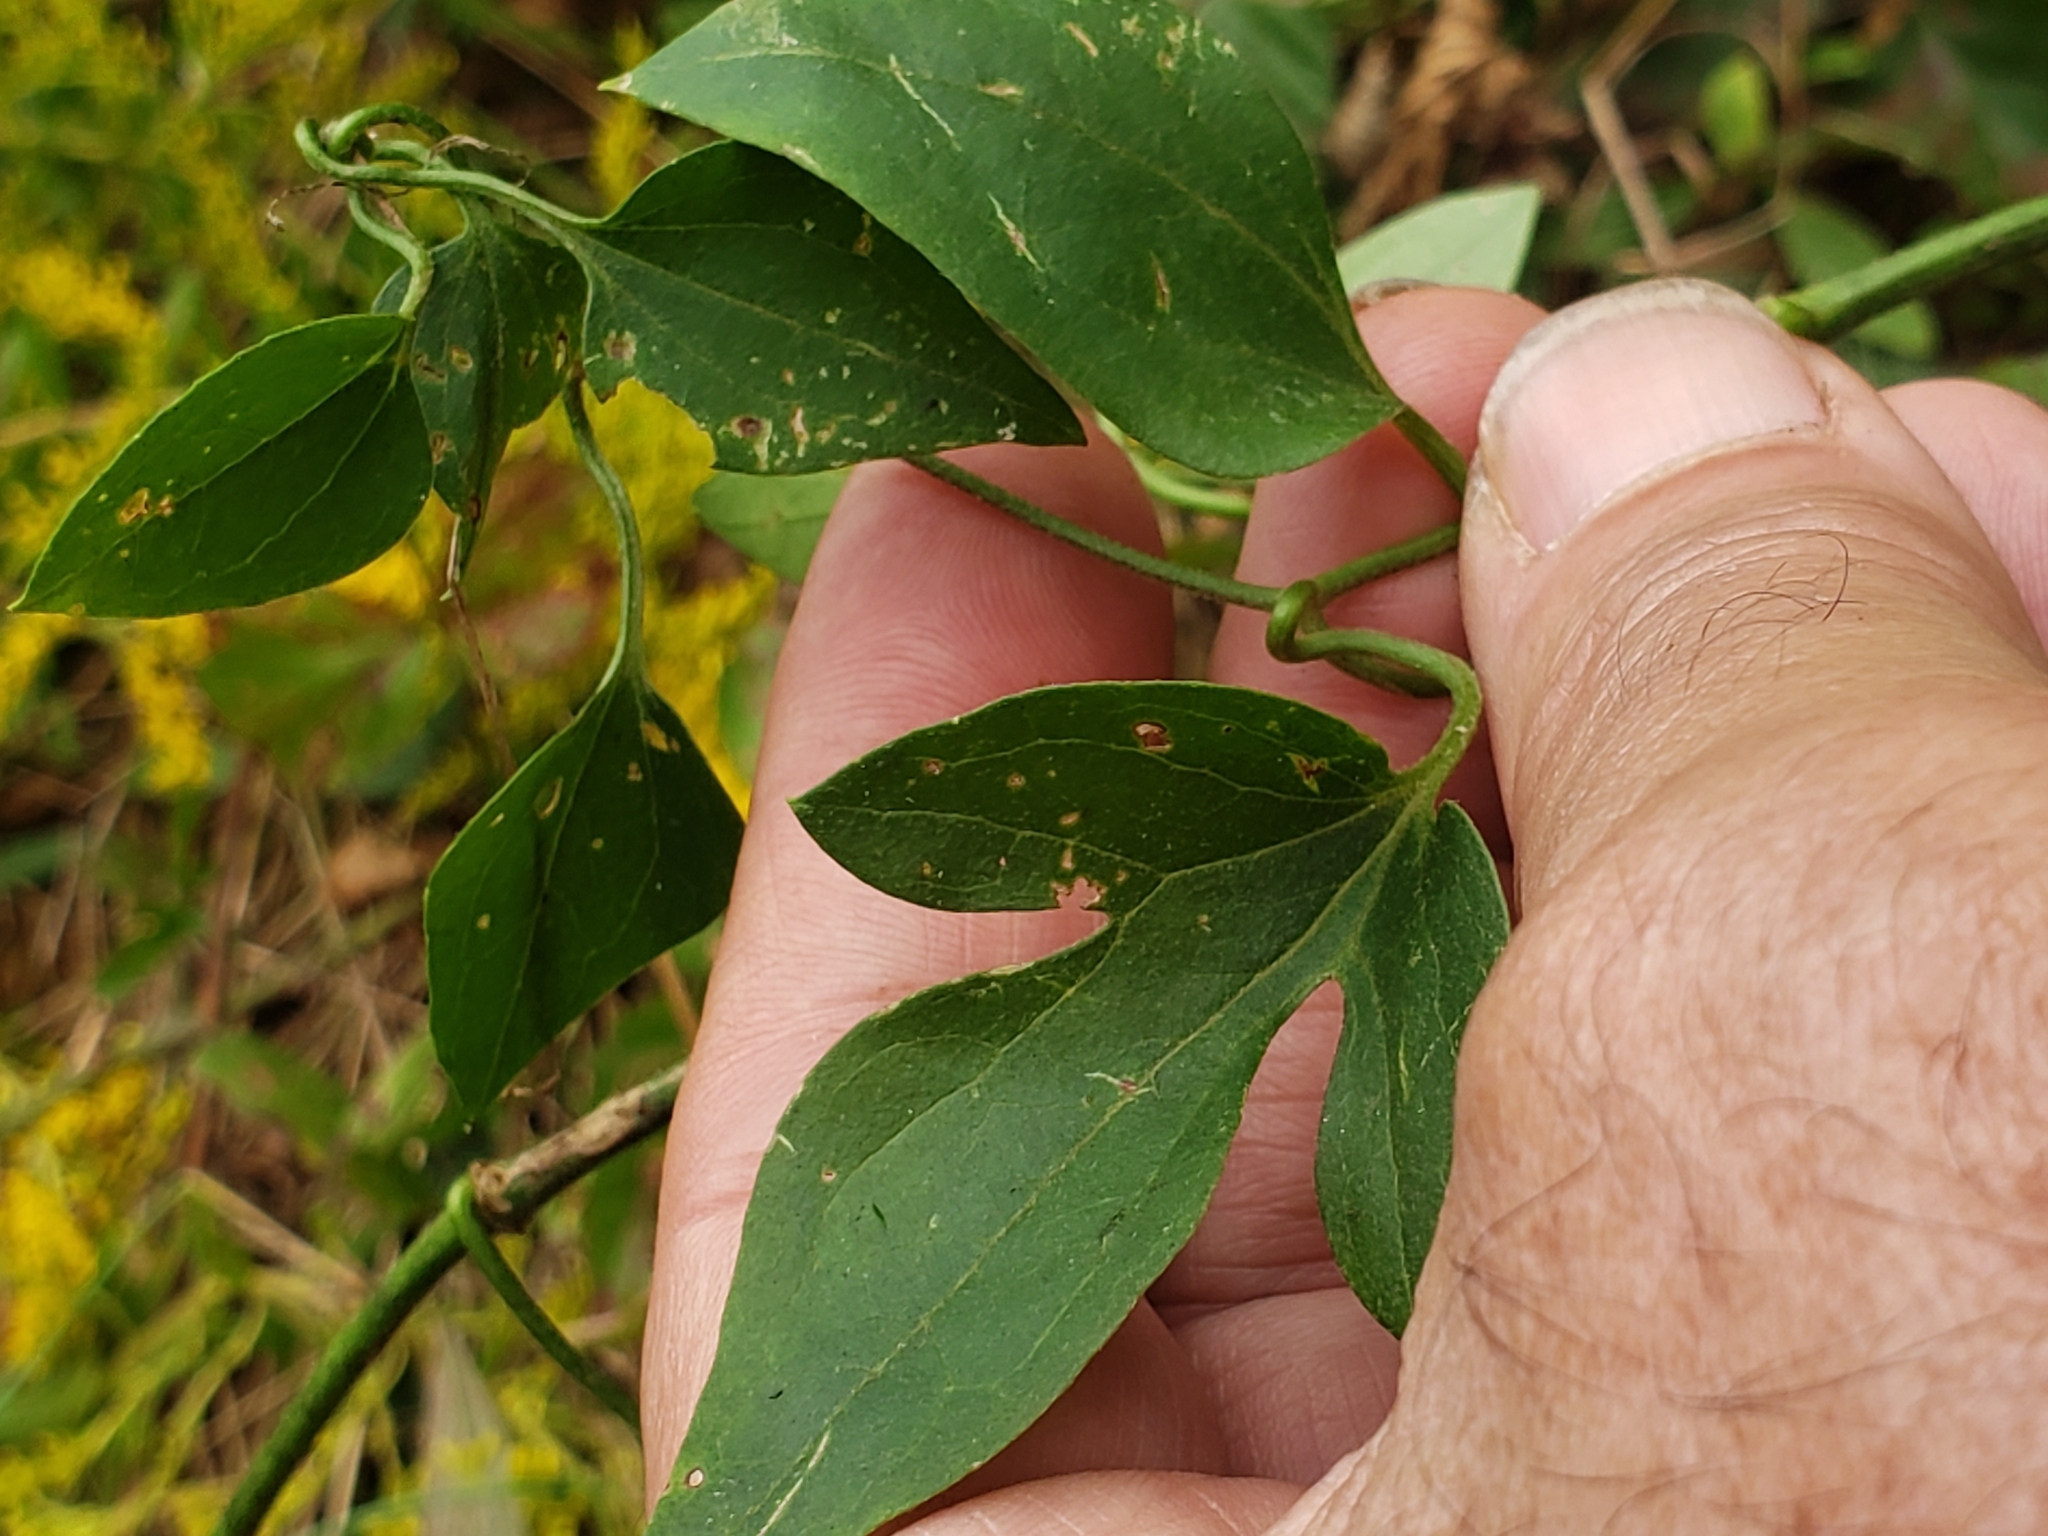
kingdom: Plantae
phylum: Tracheophyta
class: Magnoliopsida
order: Ranunculales
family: Ranunculaceae
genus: Clematis
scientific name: Clematis terniflora
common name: Sweet autumn clematis
